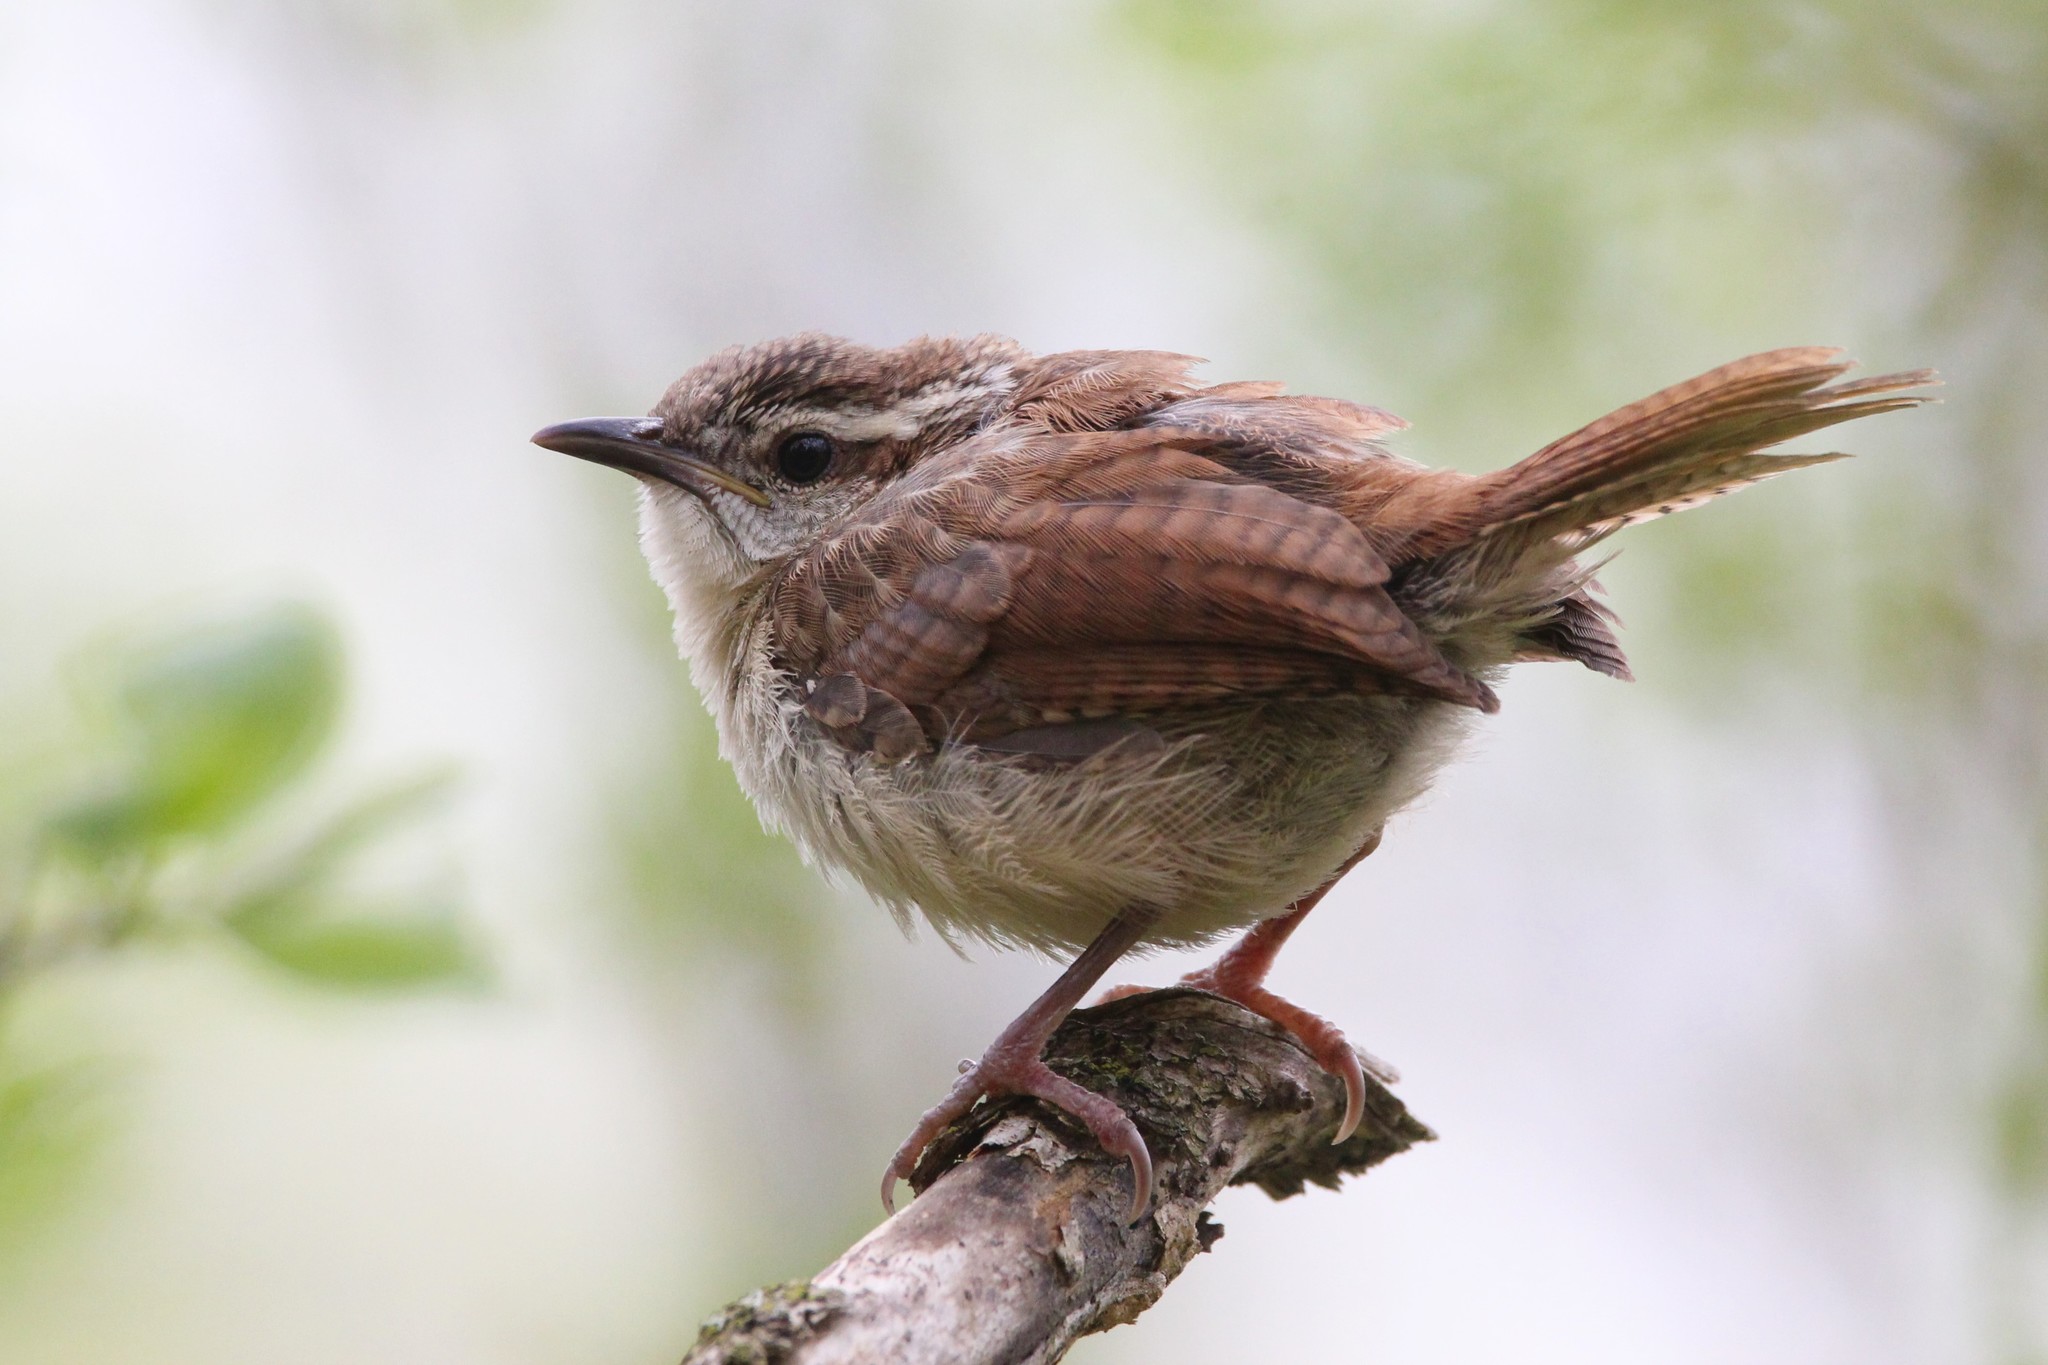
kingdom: Animalia
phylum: Chordata
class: Aves
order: Passeriformes
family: Troglodytidae
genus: Thryothorus
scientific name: Thryothorus ludovicianus
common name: Carolina wren
